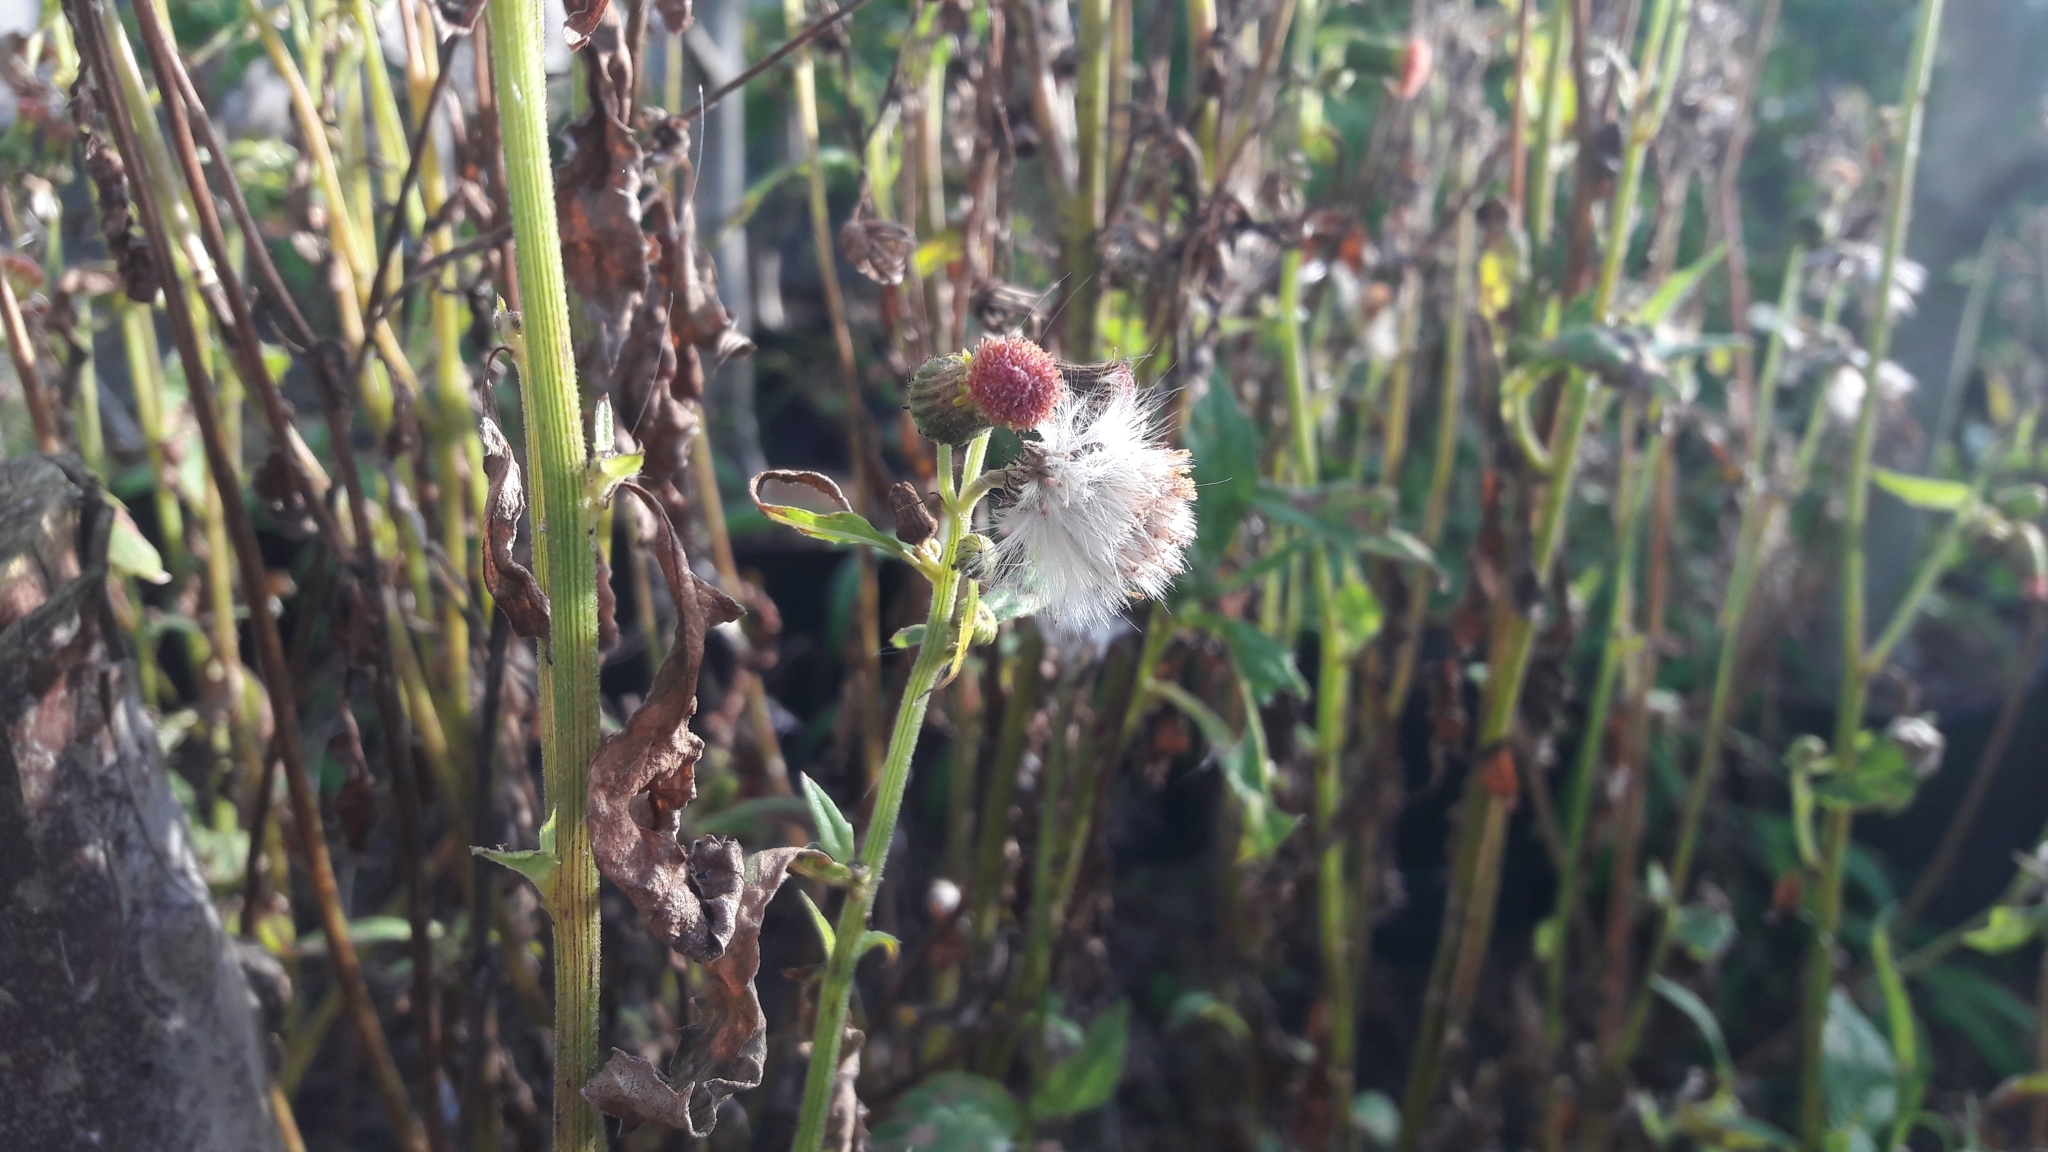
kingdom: Plantae
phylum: Tracheophyta
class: Magnoliopsida
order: Asterales
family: Asteraceae
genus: Crassocephalum
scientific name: Crassocephalum crepidioides
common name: Redflower ragleaf
